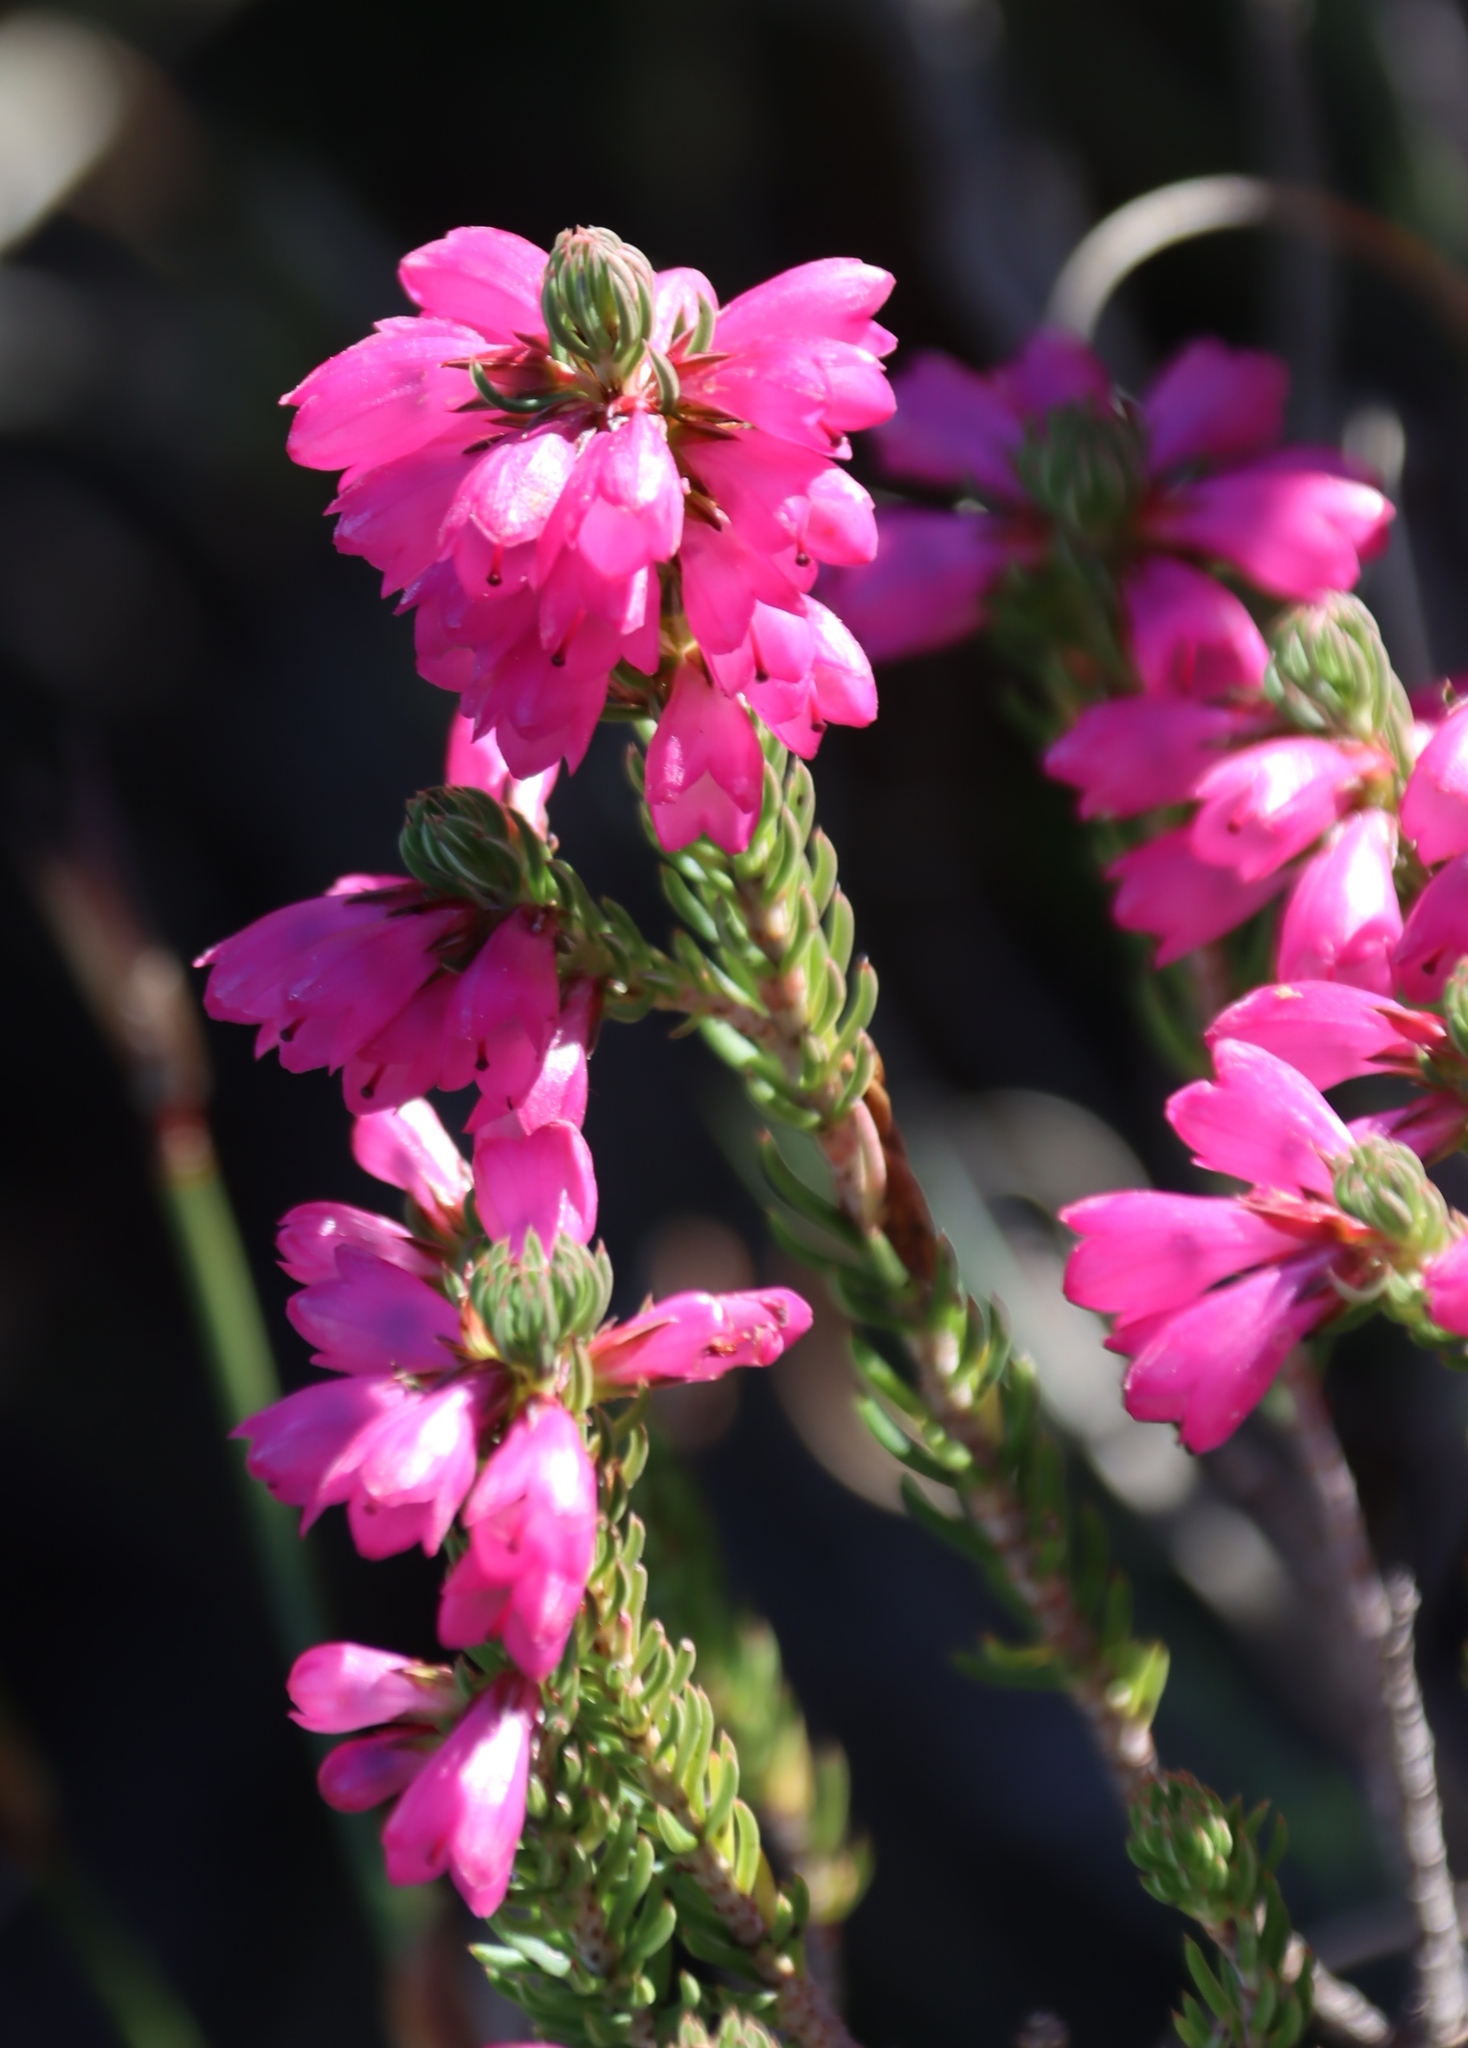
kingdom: Plantae
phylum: Tracheophyta
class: Magnoliopsida
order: Ericales
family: Ericaceae
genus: Erica
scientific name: Erica abietina
